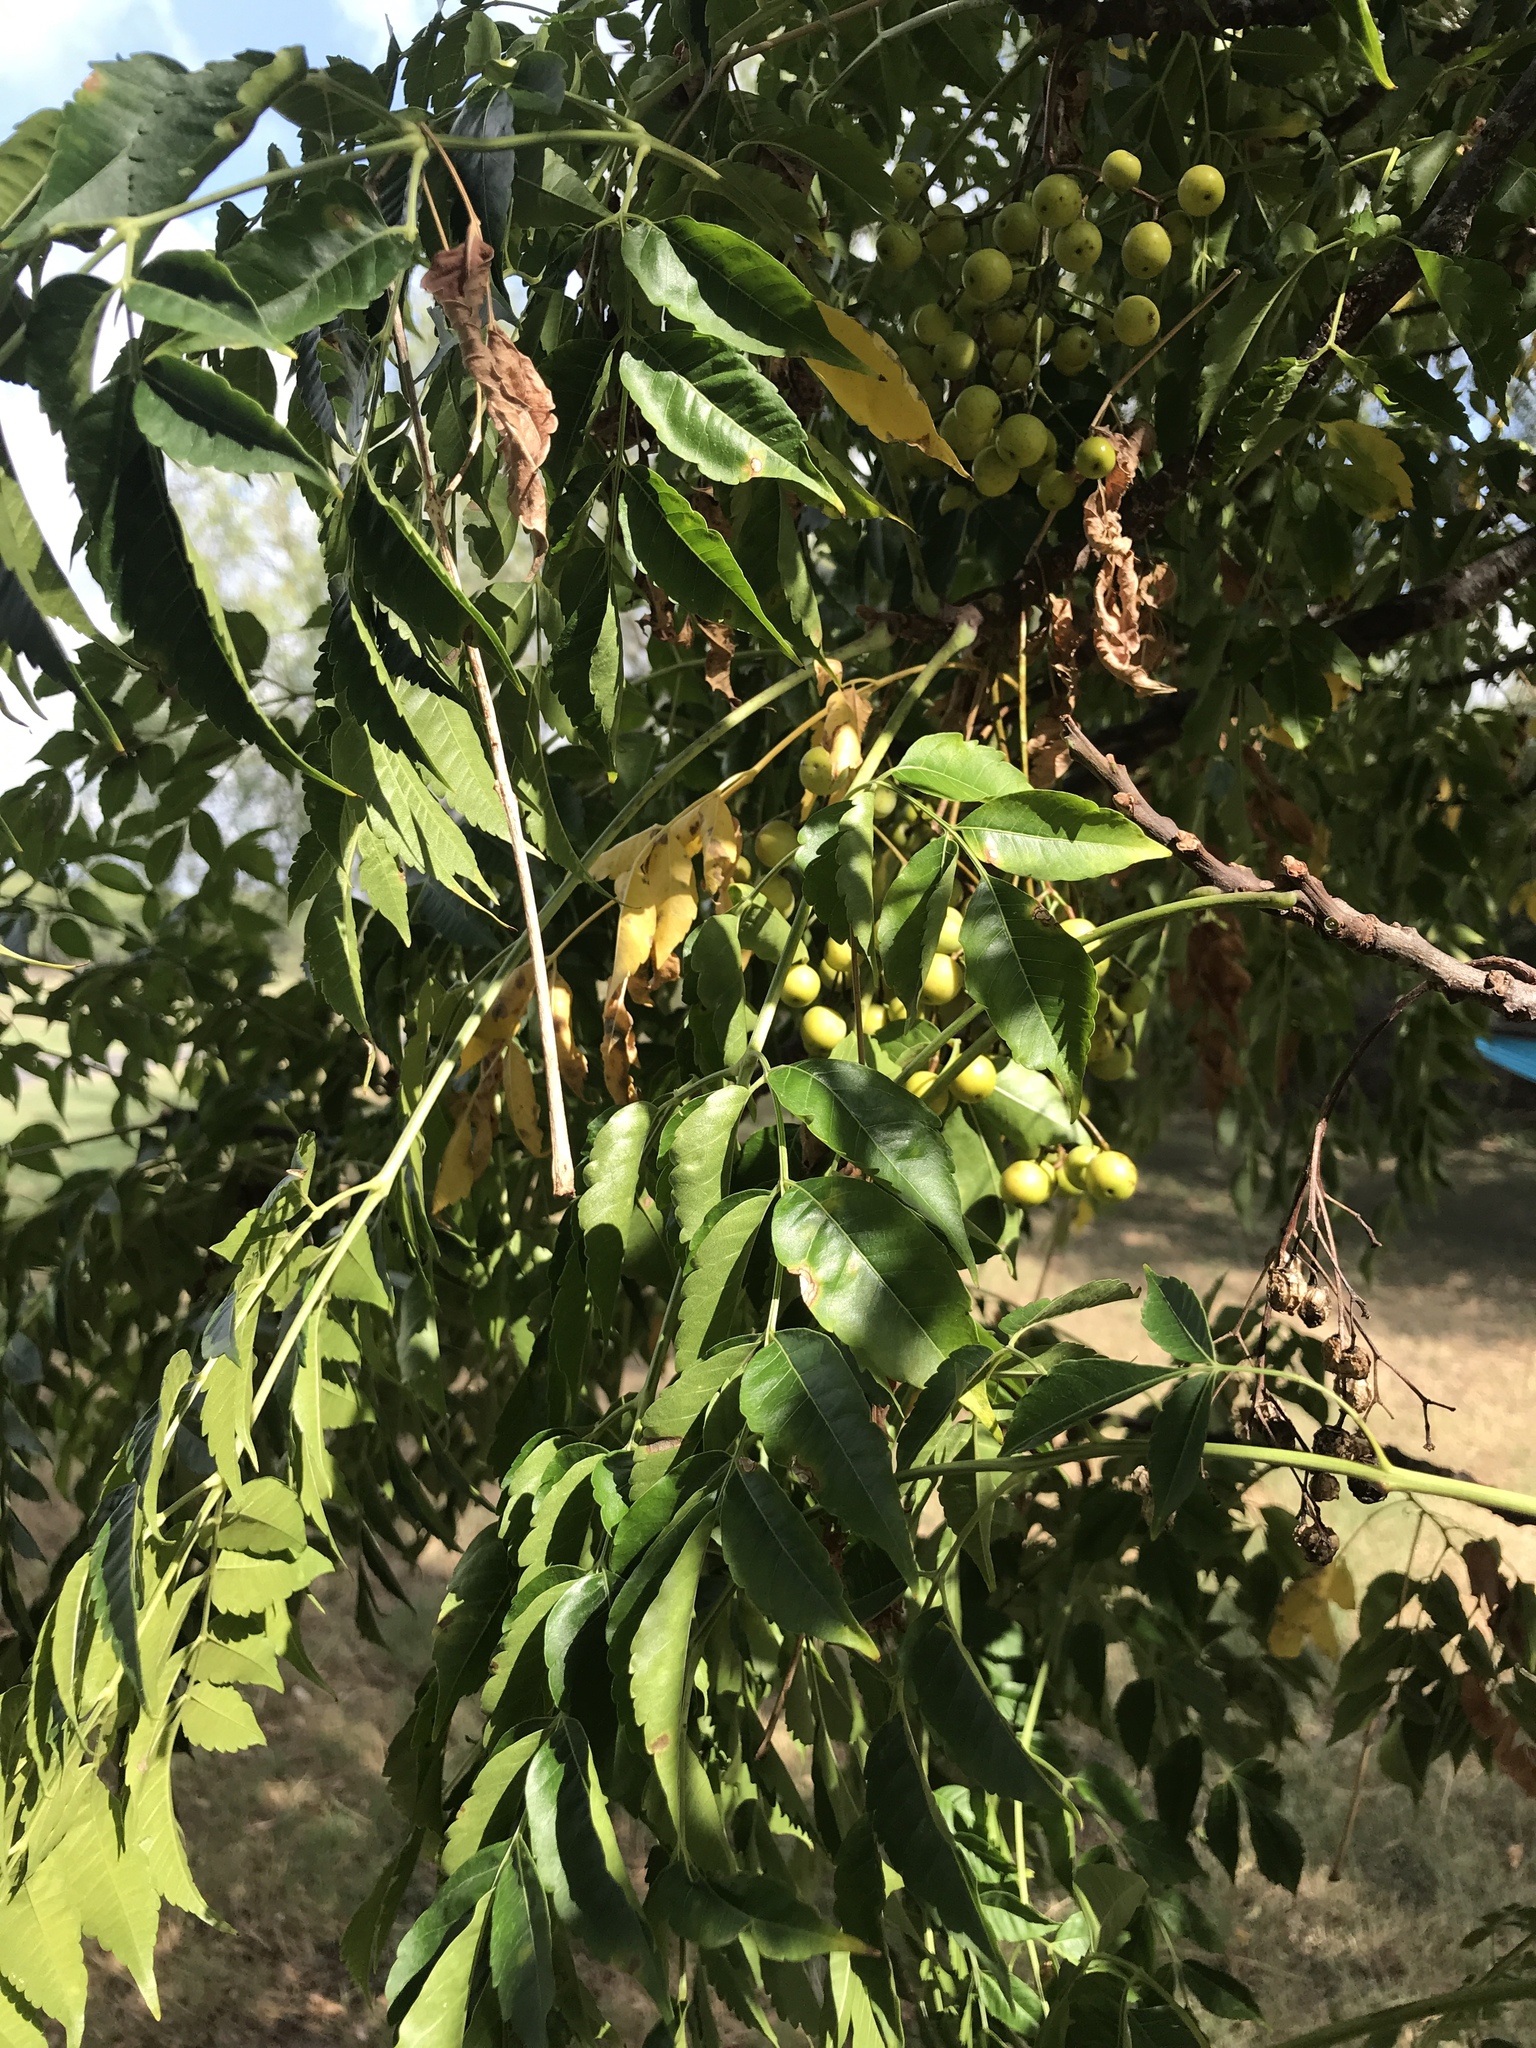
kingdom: Plantae
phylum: Tracheophyta
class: Magnoliopsida
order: Sapindales
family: Meliaceae
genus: Melia
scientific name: Melia azedarach
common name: Chinaberrytree
